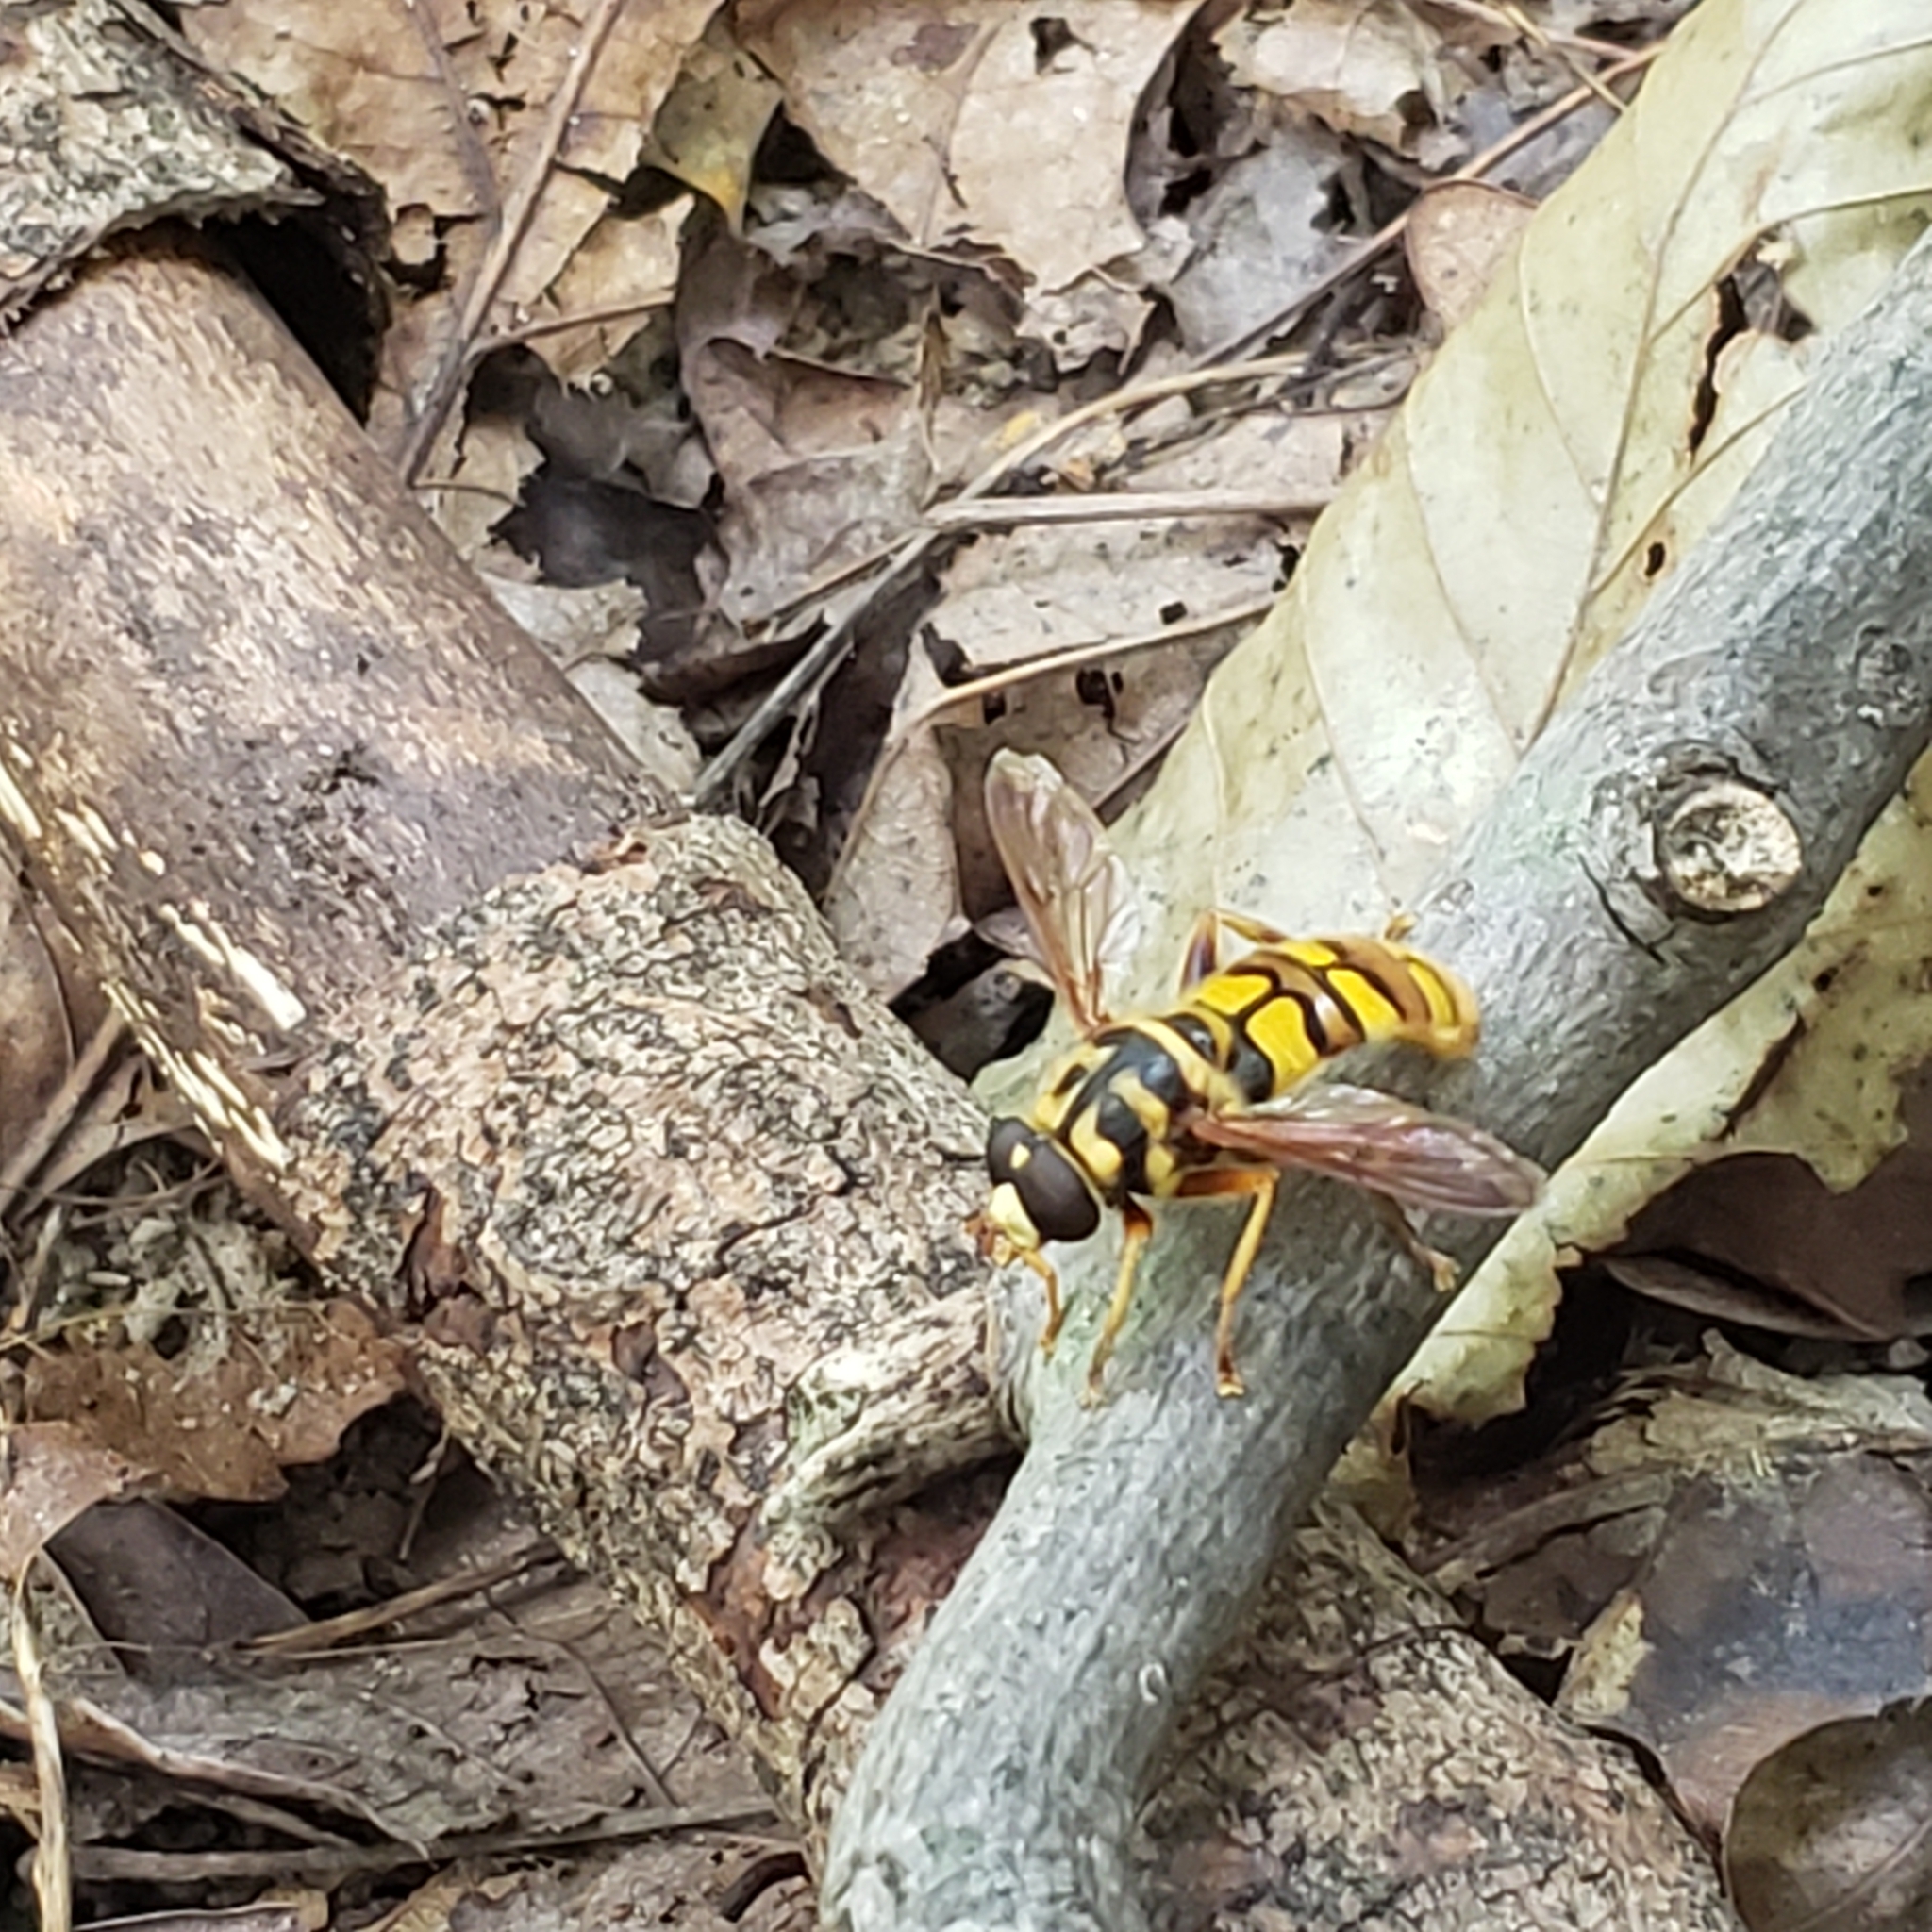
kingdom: Animalia
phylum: Arthropoda
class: Insecta
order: Diptera
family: Syrphidae
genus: Milesia
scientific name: Milesia virginiensis
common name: Virginia giant
